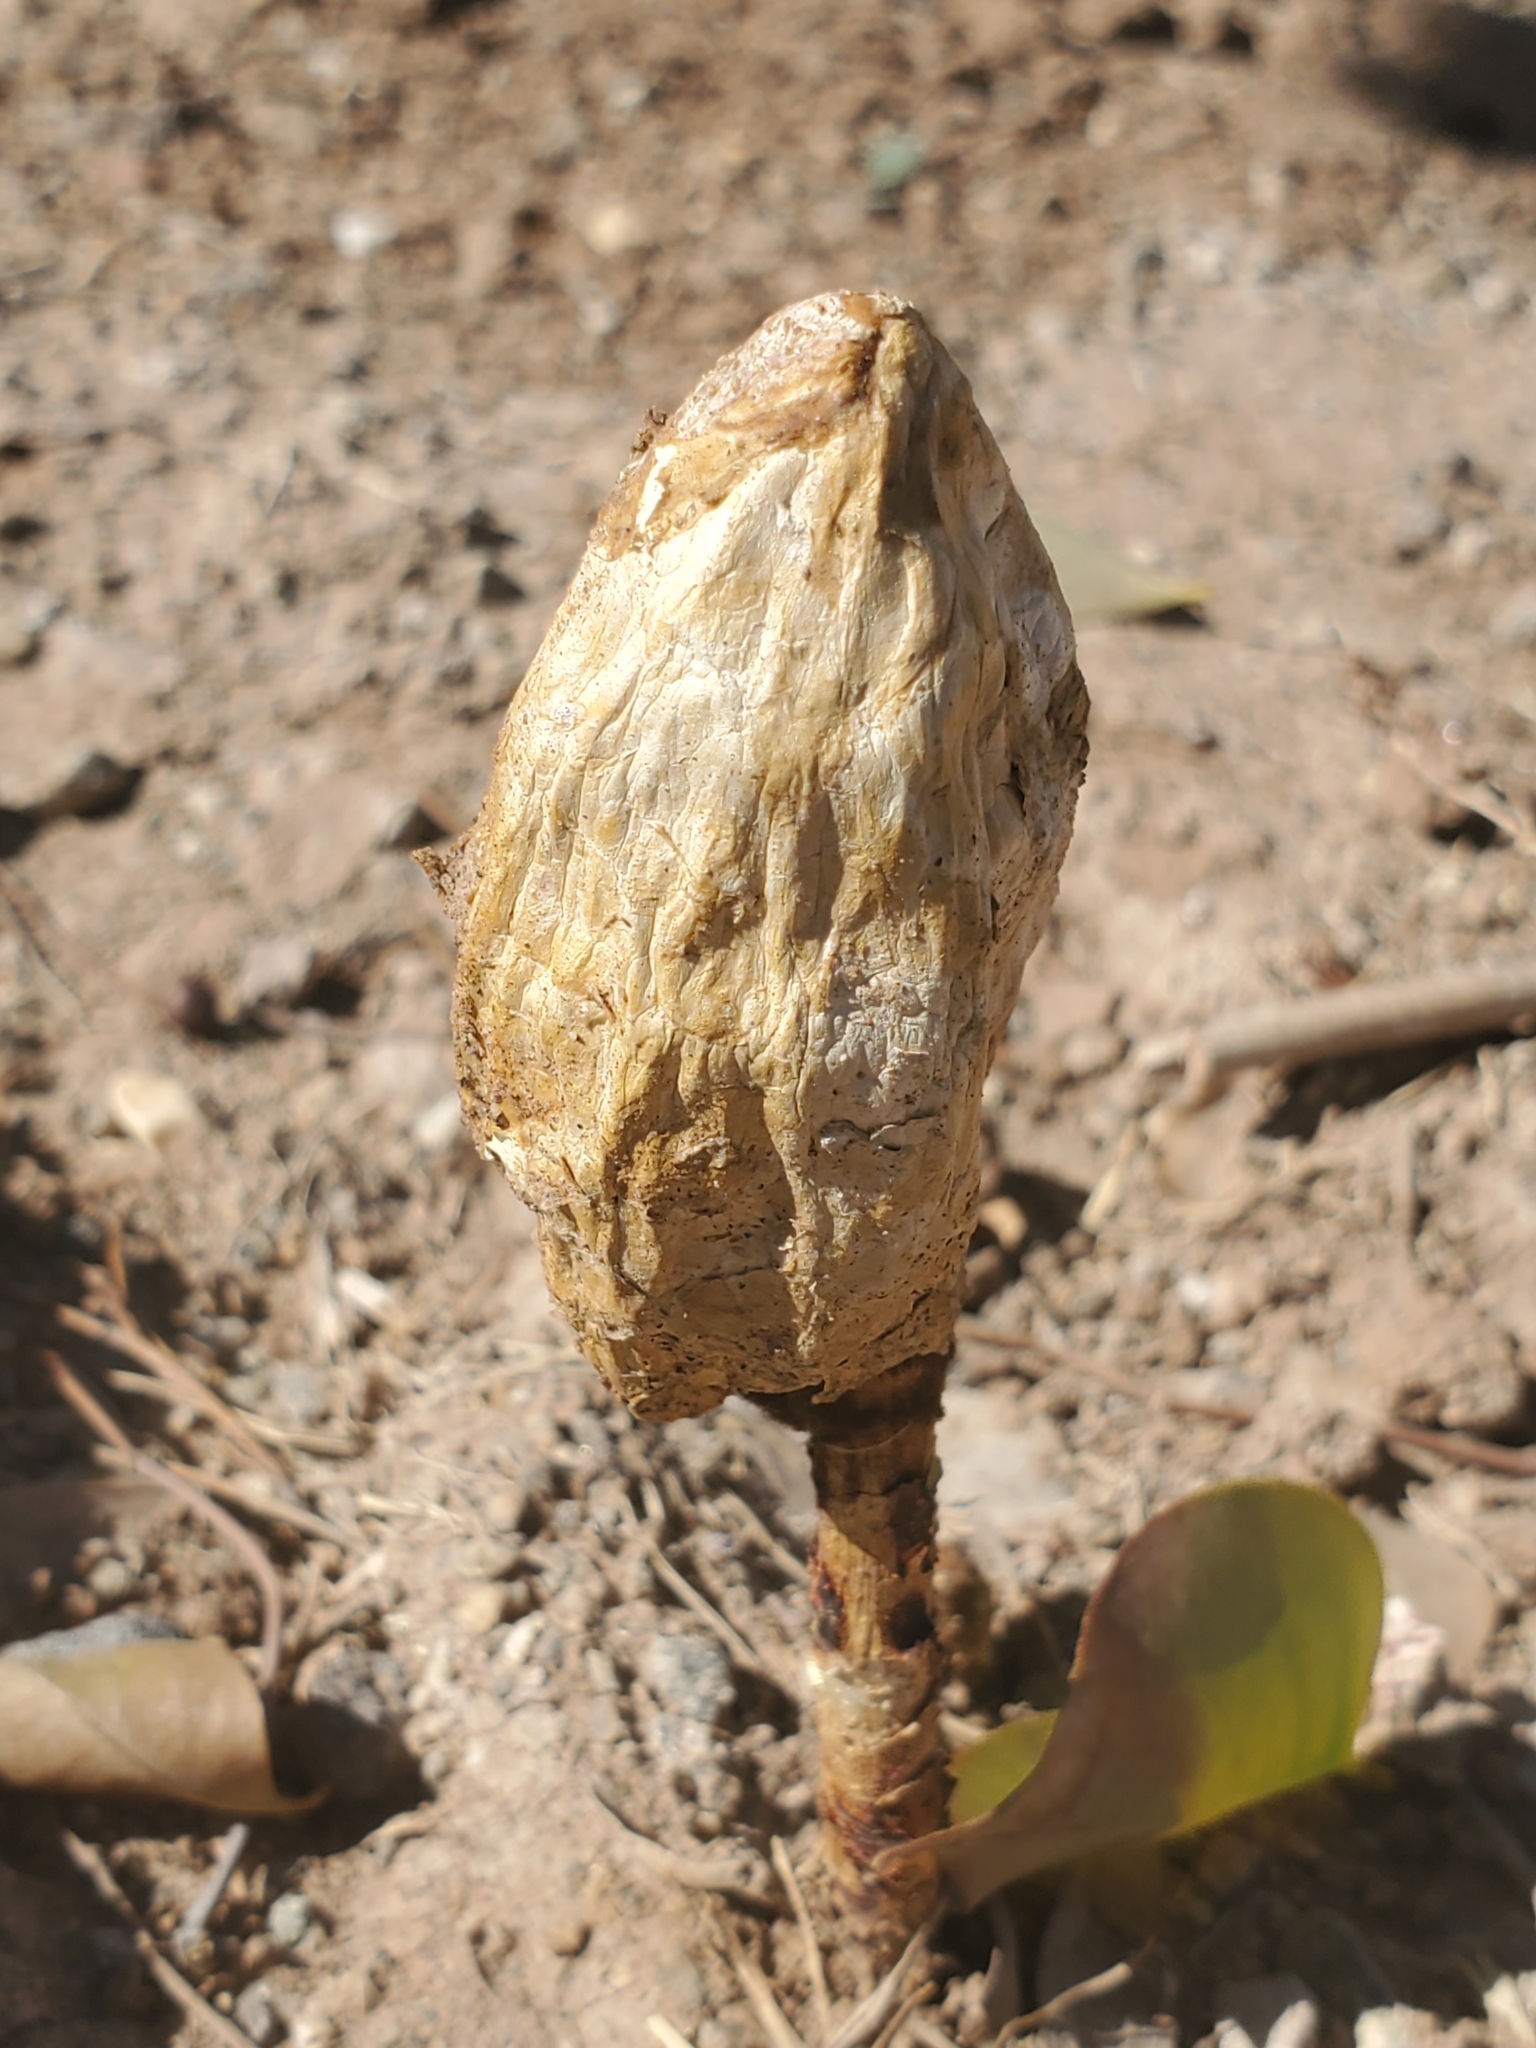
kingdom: Fungi
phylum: Basidiomycota
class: Agaricomycetes
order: Agaricales
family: Agaricaceae
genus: Podaxis
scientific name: Podaxis pistillaris
